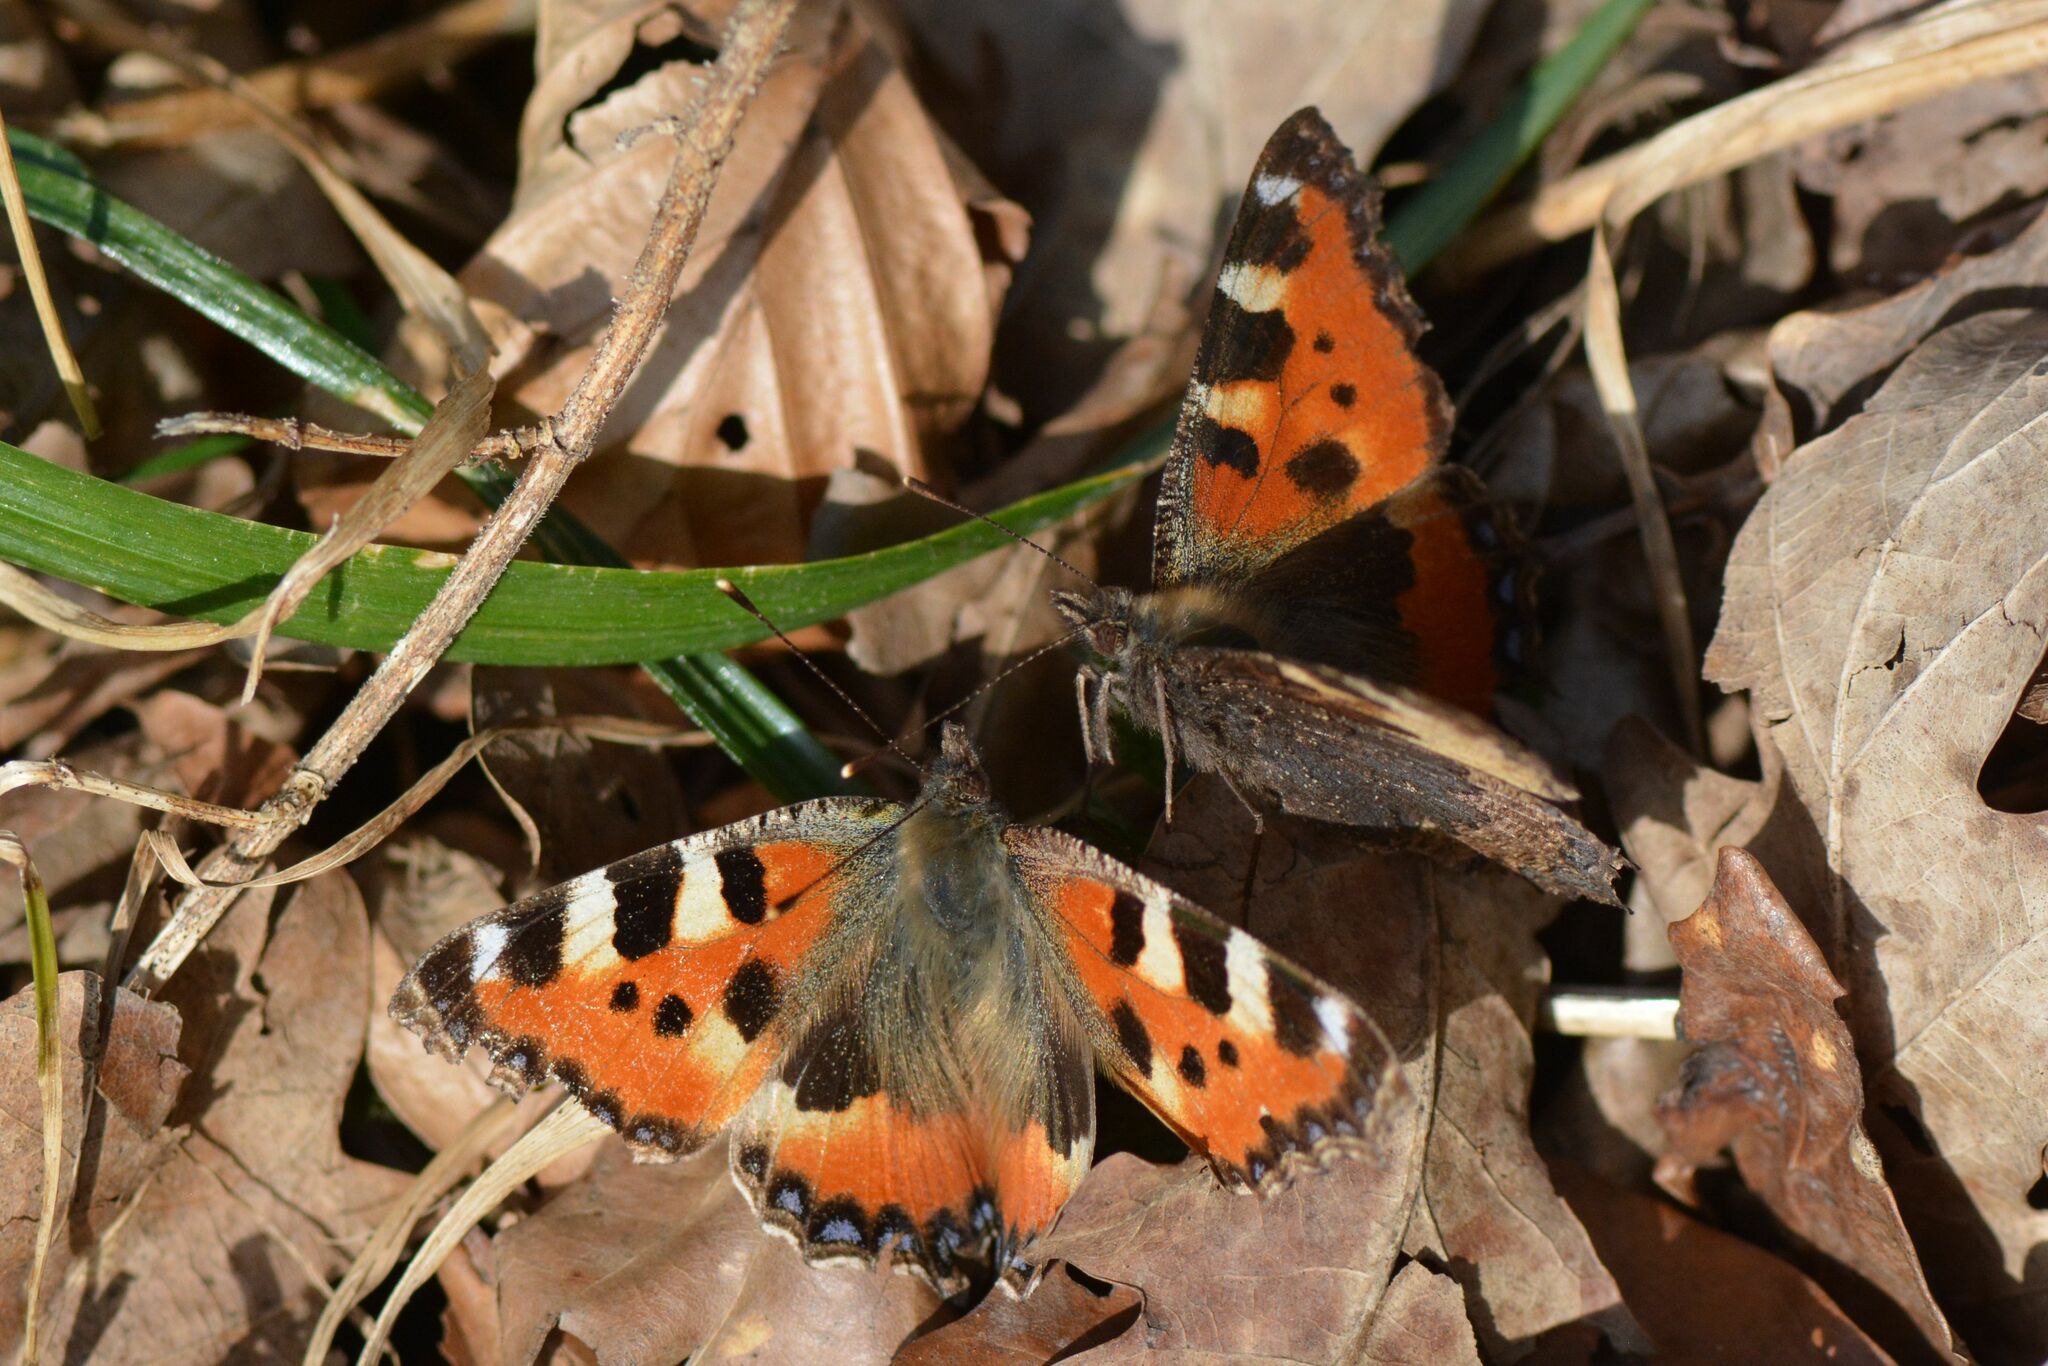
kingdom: Animalia
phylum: Arthropoda
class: Insecta
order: Lepidoptera
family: Nymphalidae
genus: Aglais
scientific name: Aglais urticae
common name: Small tortoiseshell
